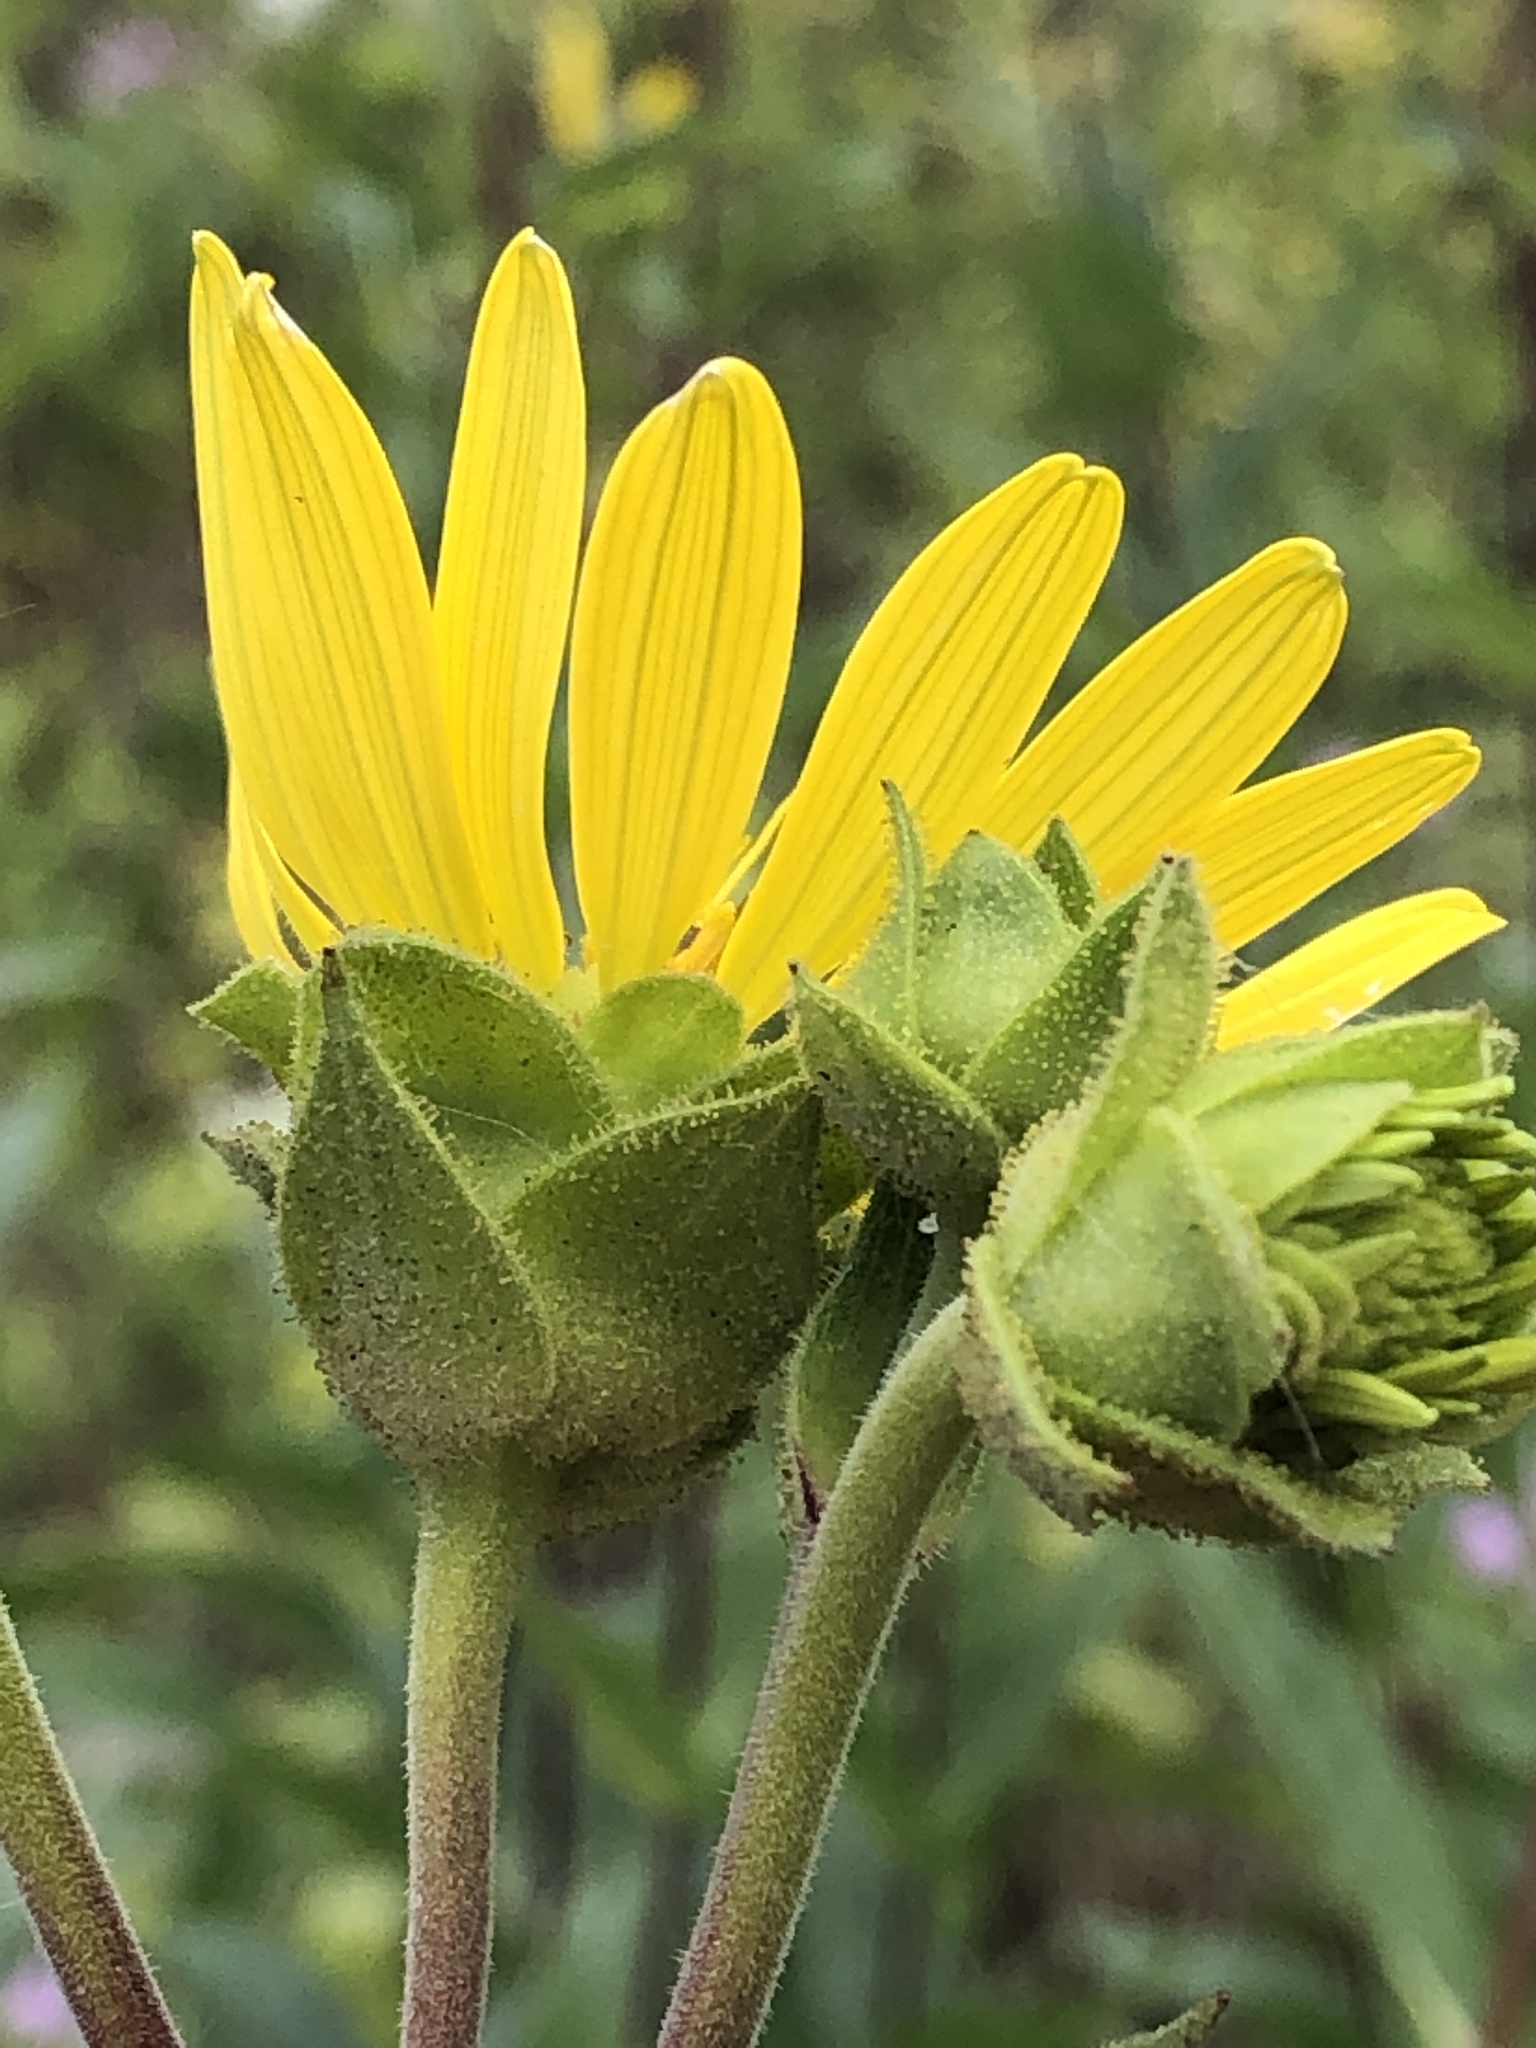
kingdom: Plantae
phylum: Tracheophyta
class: Magnoliopsida
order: Asterales
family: Asteraceae
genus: Silphium
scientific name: Silphium integrifolium
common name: Whole-leaf rosinweed
